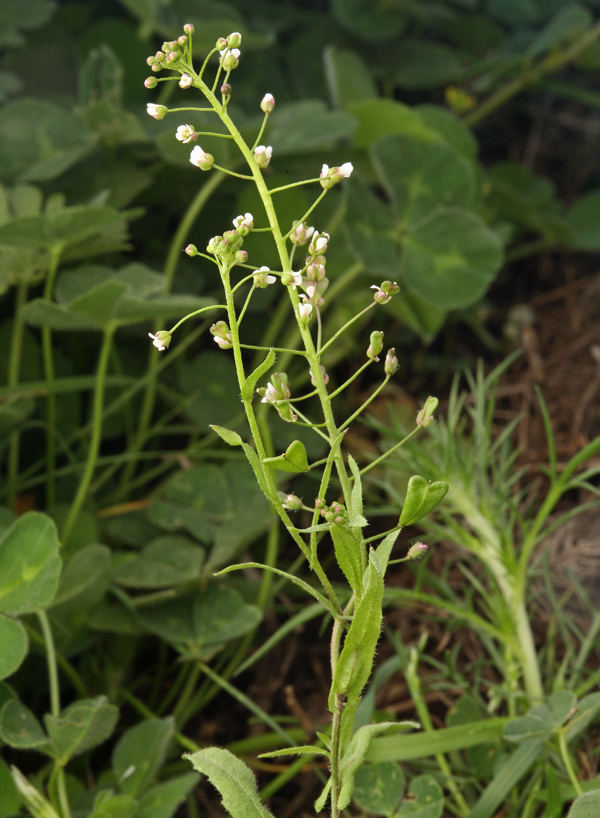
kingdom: Plantae
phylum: Tracheophyta
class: Magnoliopsida
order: Brassicales
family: Brassicaceae
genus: Capsella
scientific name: Capsella bursa-pastoris
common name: Shepherd's purse
